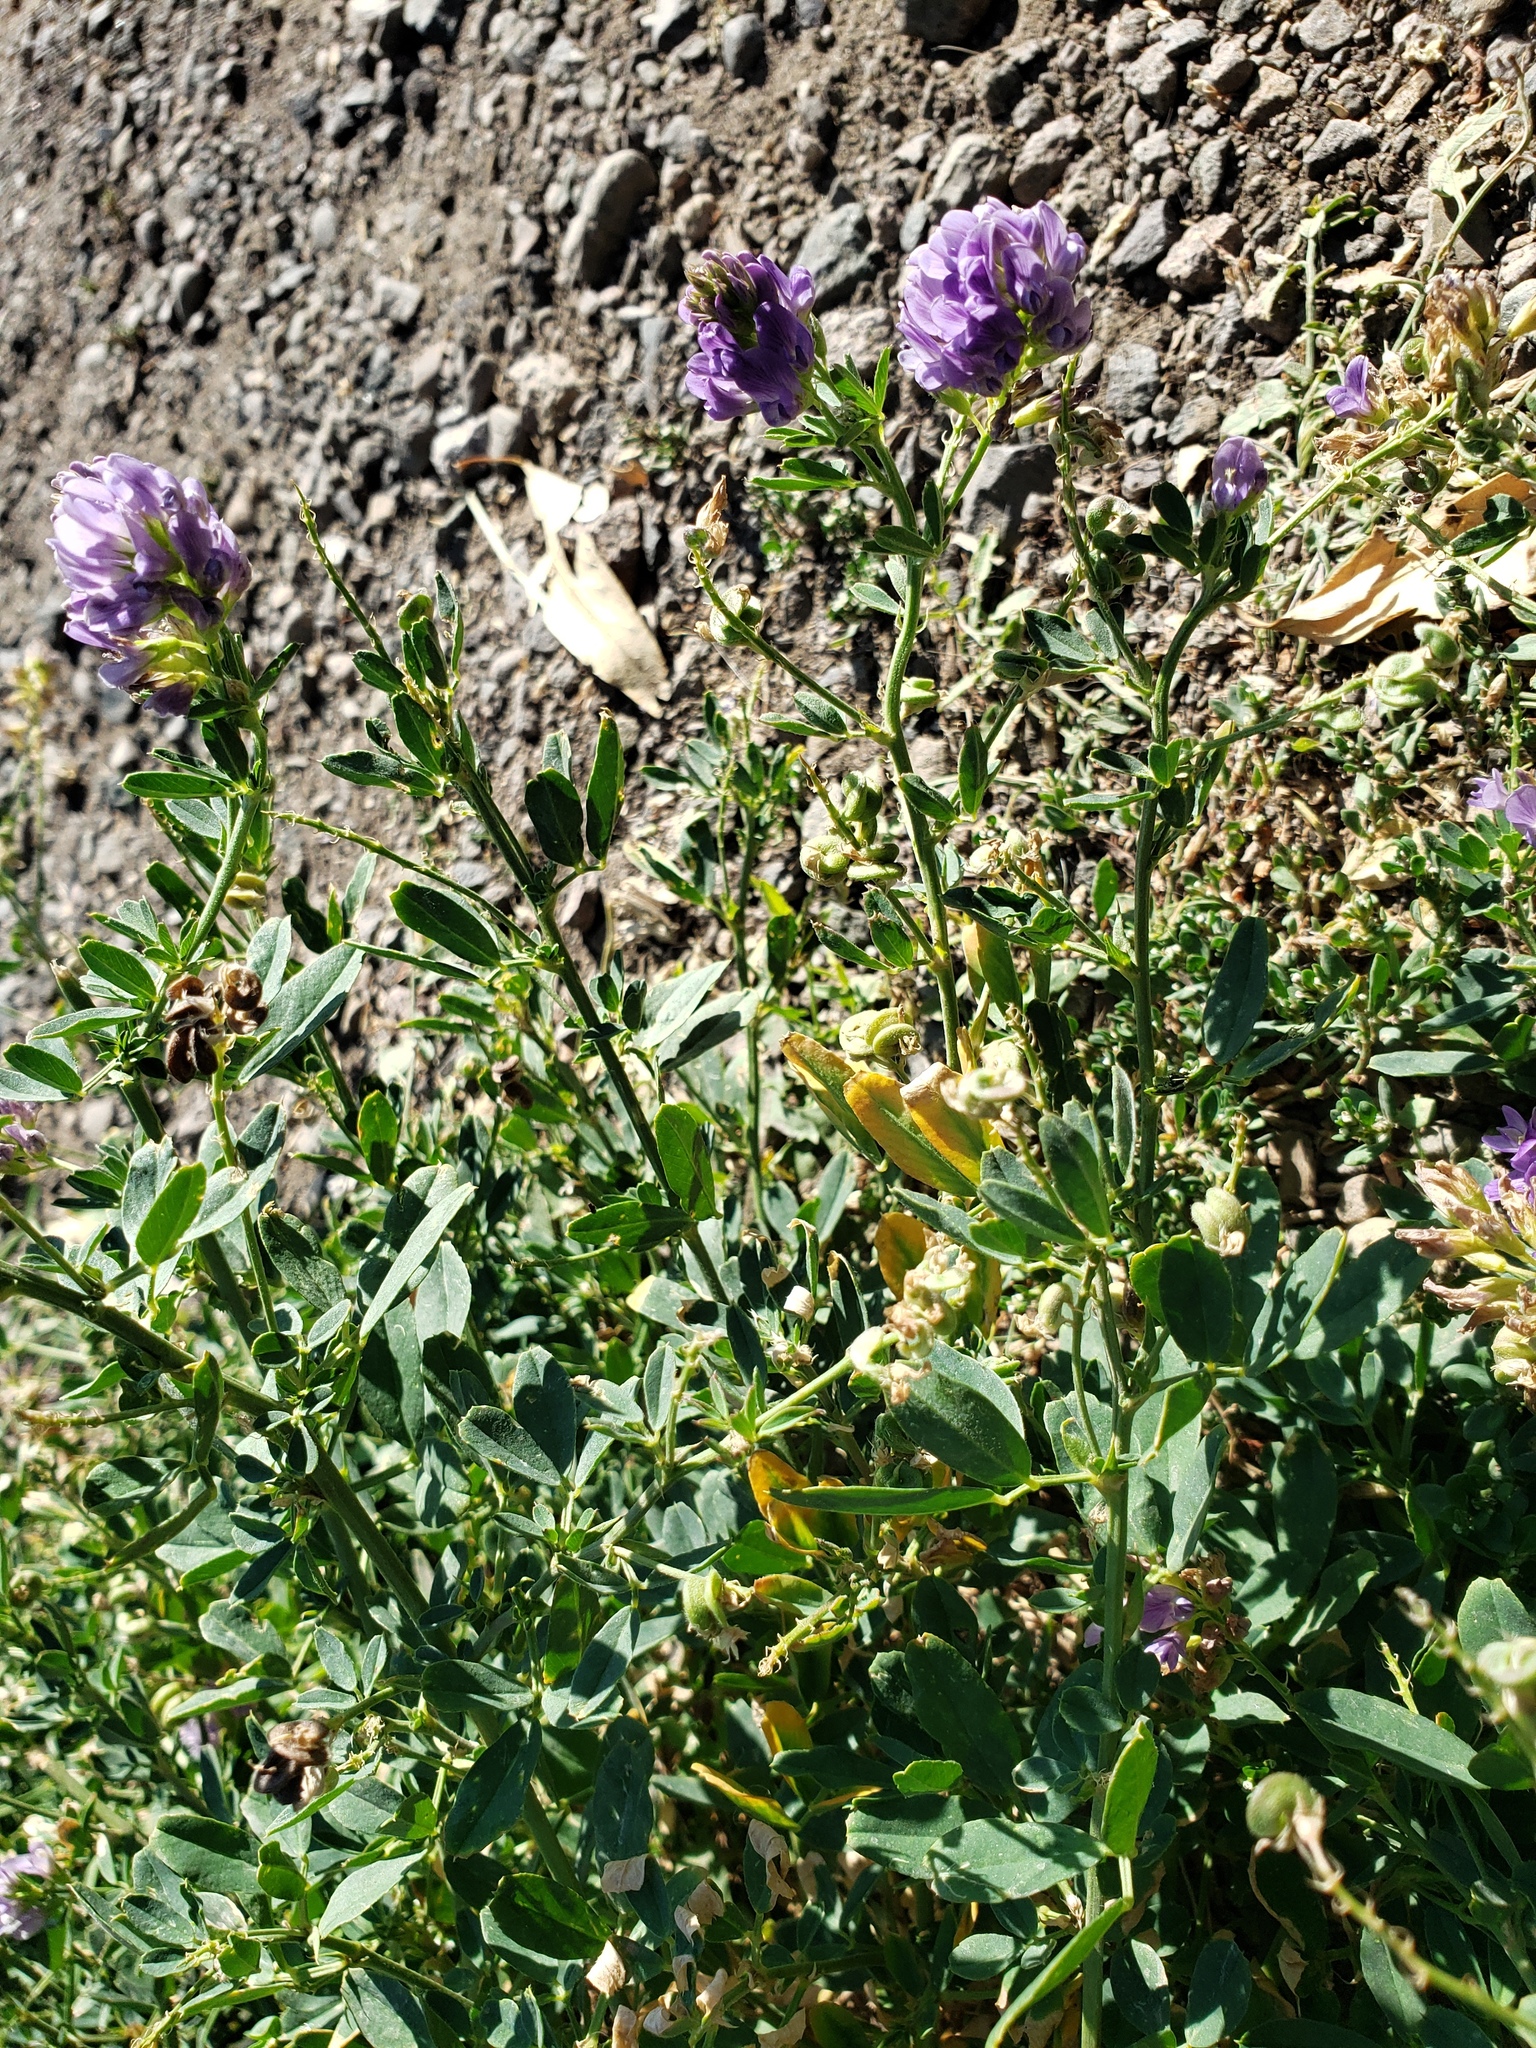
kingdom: Plantae
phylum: Tracheophyta
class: Magnoliopsida
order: Fabales
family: Fabaceae
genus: Medicago
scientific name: Medicago sativa
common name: Alfalfa
